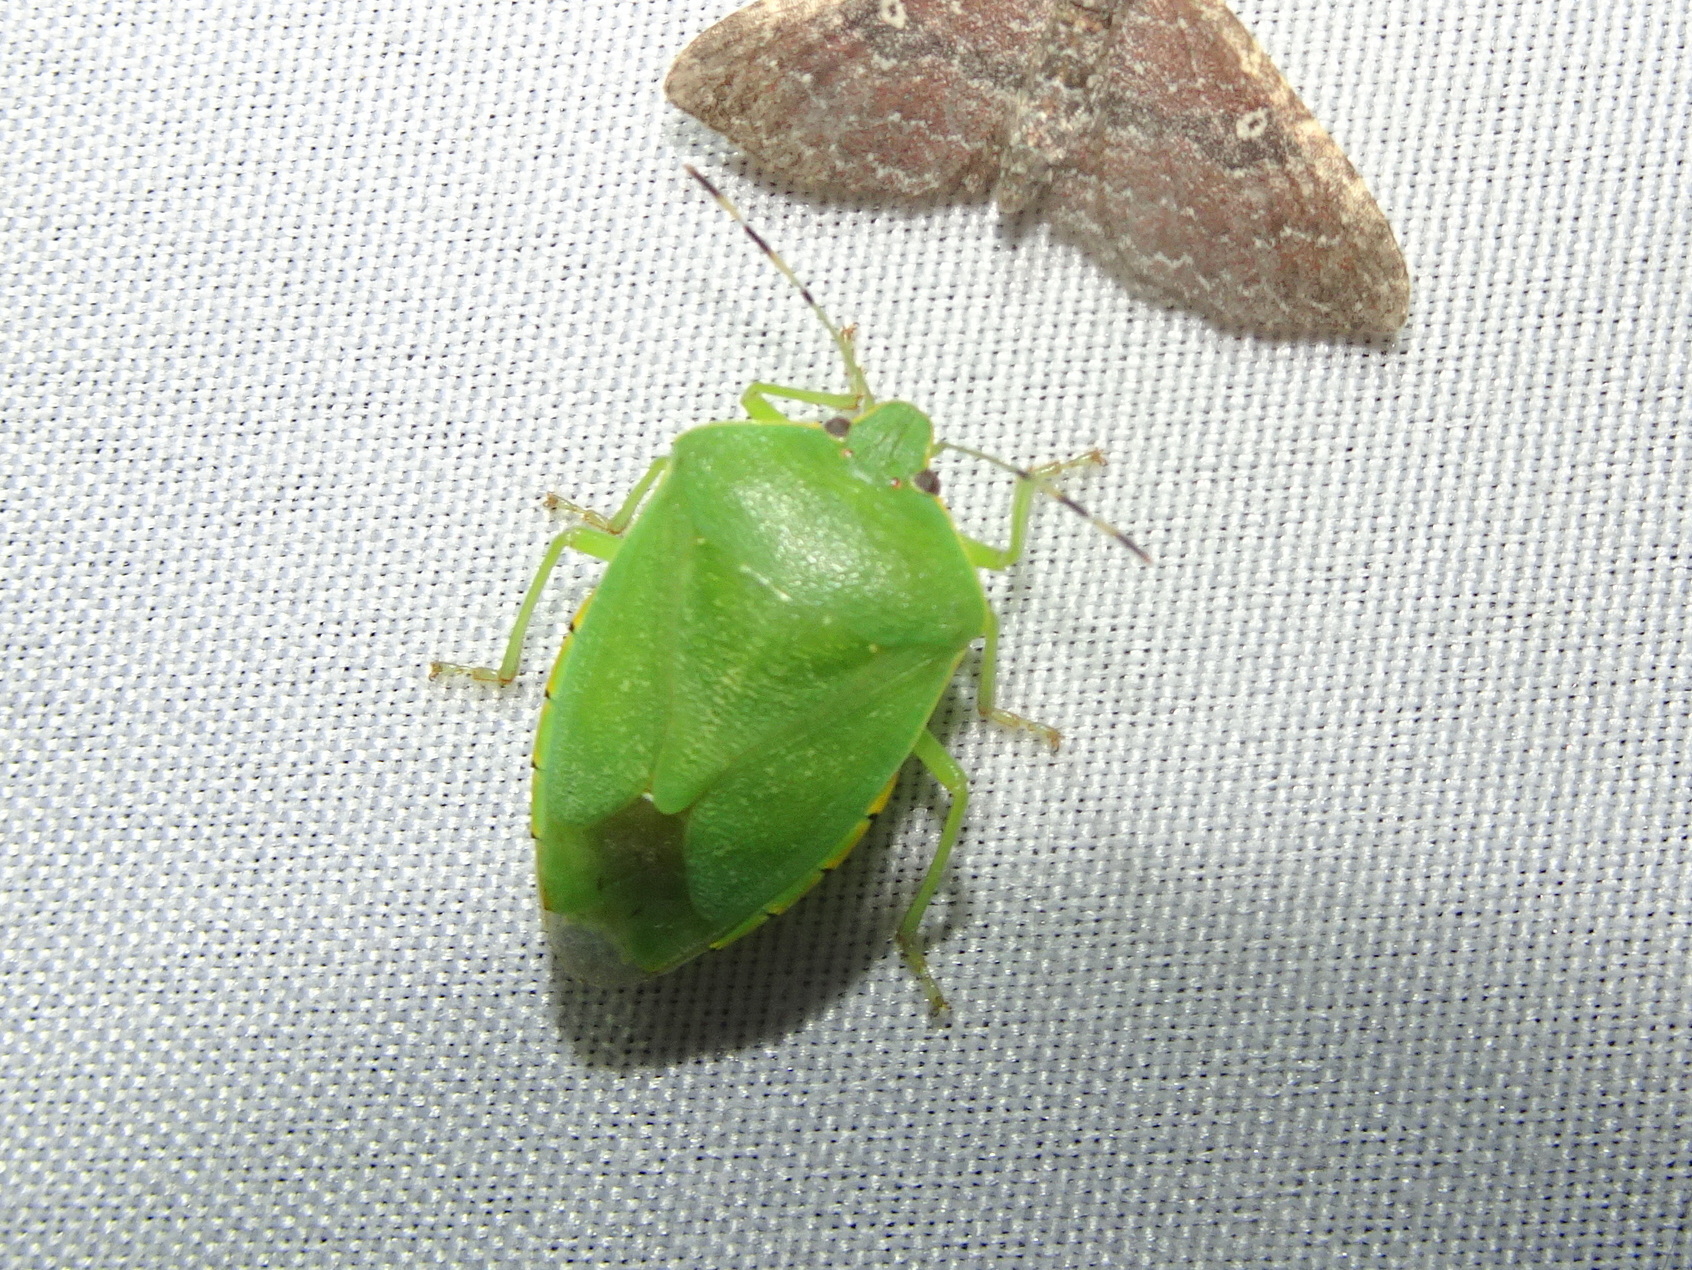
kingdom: Animalia
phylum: Arthropoda
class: Insecta
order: Hemiptera
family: Pentatomidae
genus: Chinavia
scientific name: Chinavia hilaris
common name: Green stink bug
